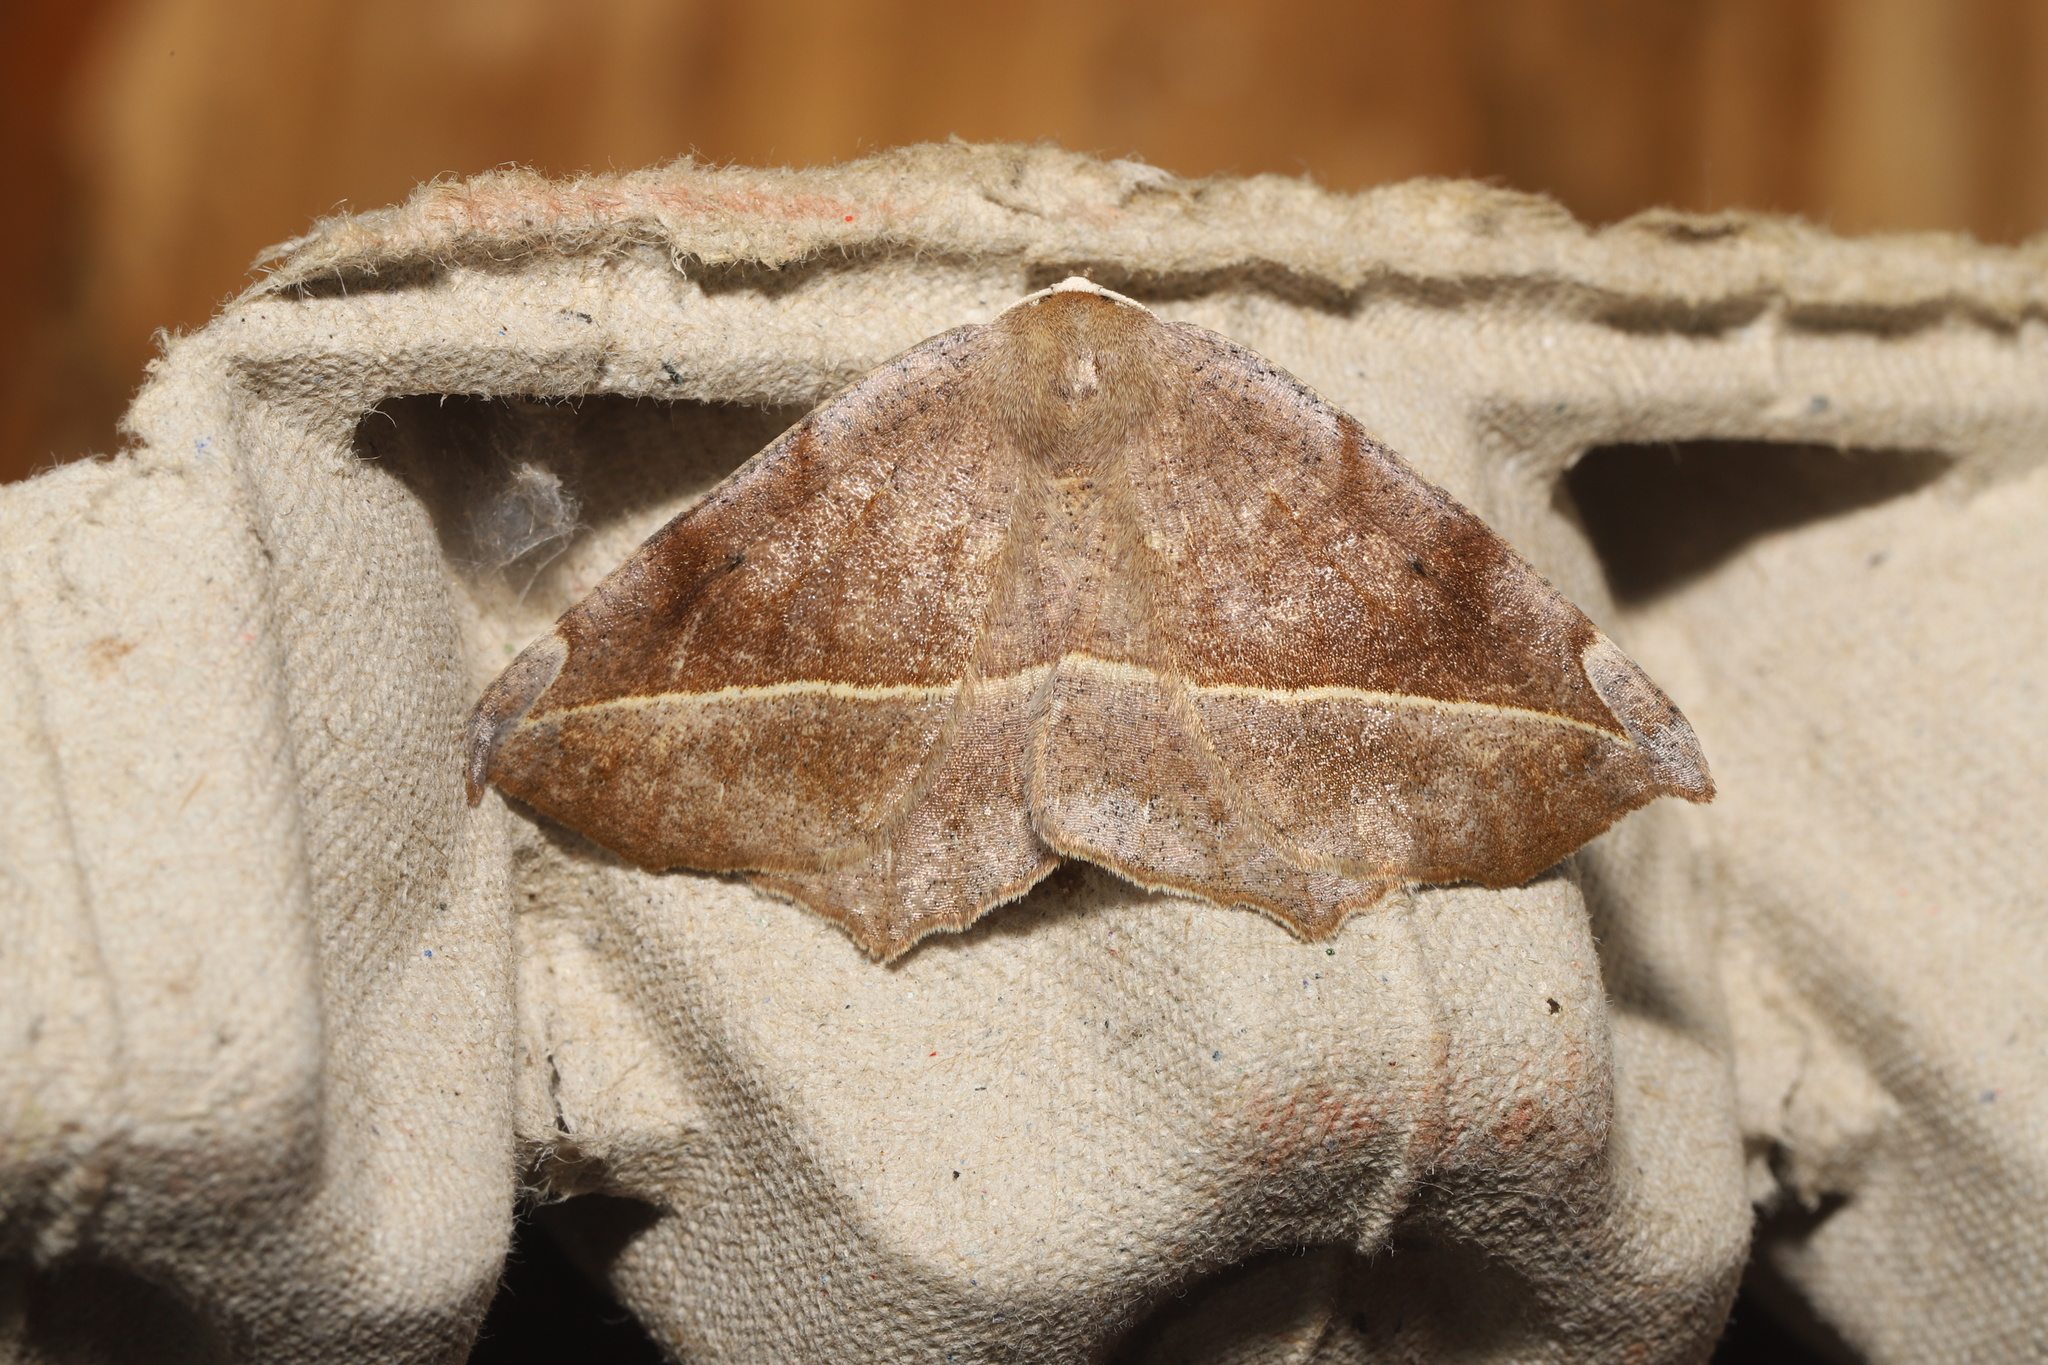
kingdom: Animalia
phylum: Arthropoda
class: Insecta
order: Lepidoptera
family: Geometridae
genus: Eutrapela
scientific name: Eutrapela clemataria
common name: Curved-toothed geometer
